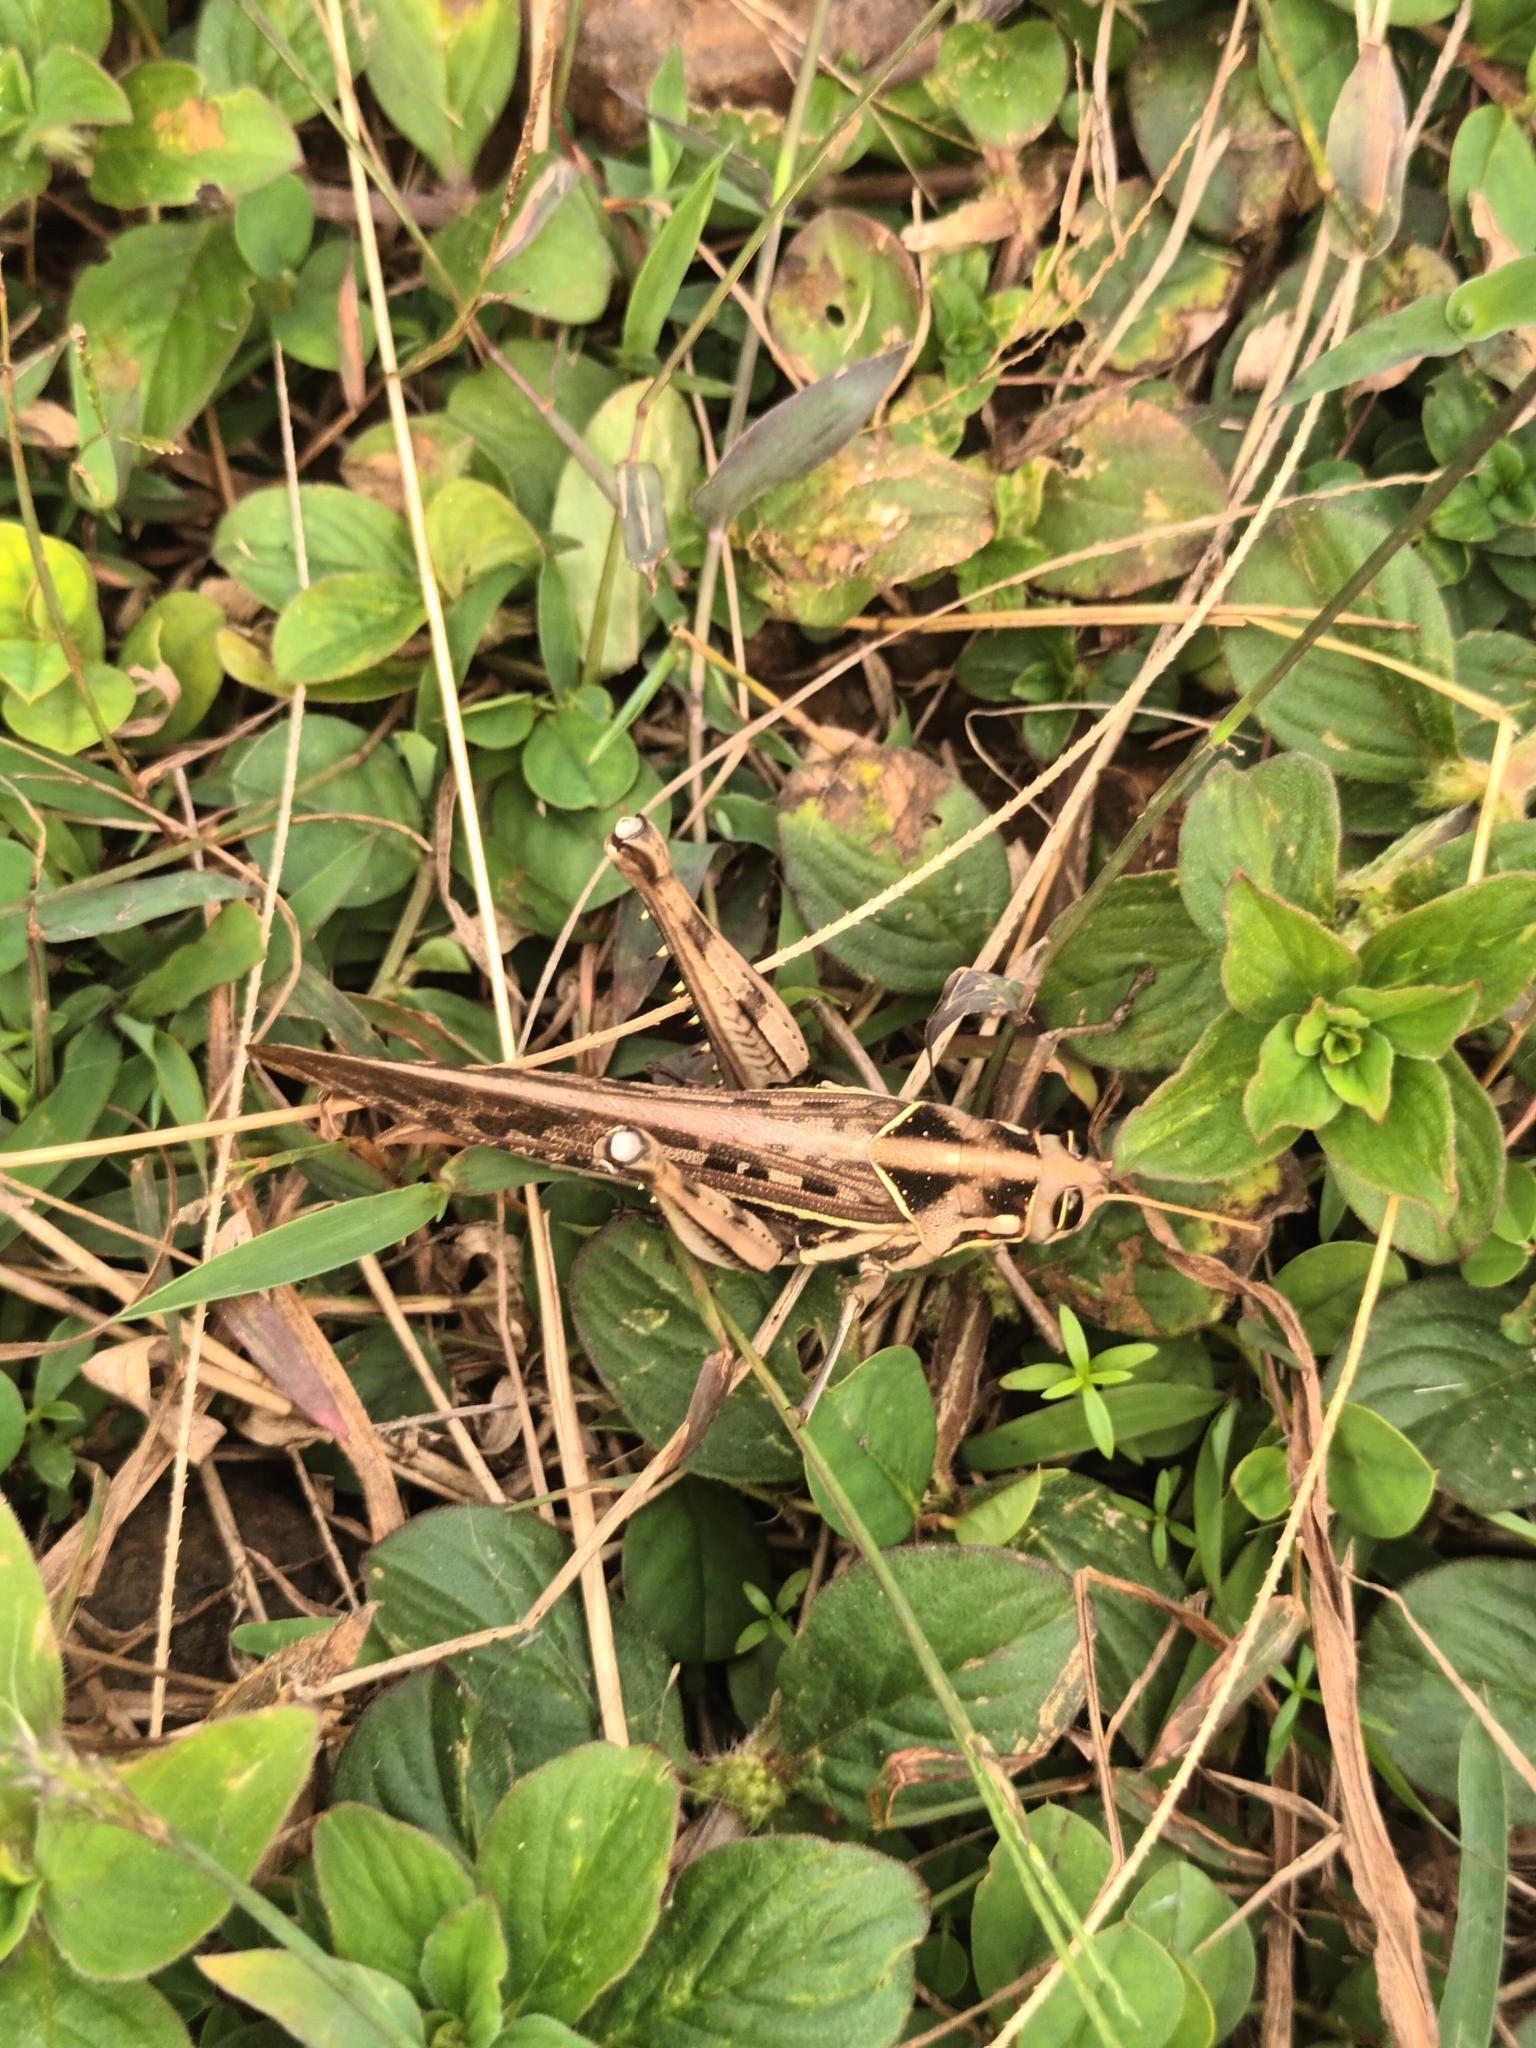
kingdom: Animalia
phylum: Arthropoda
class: Insecta
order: Orthoptera
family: Acrididae
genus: Cyrtacanthacris
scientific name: Cyrtacanthacris tatarica
